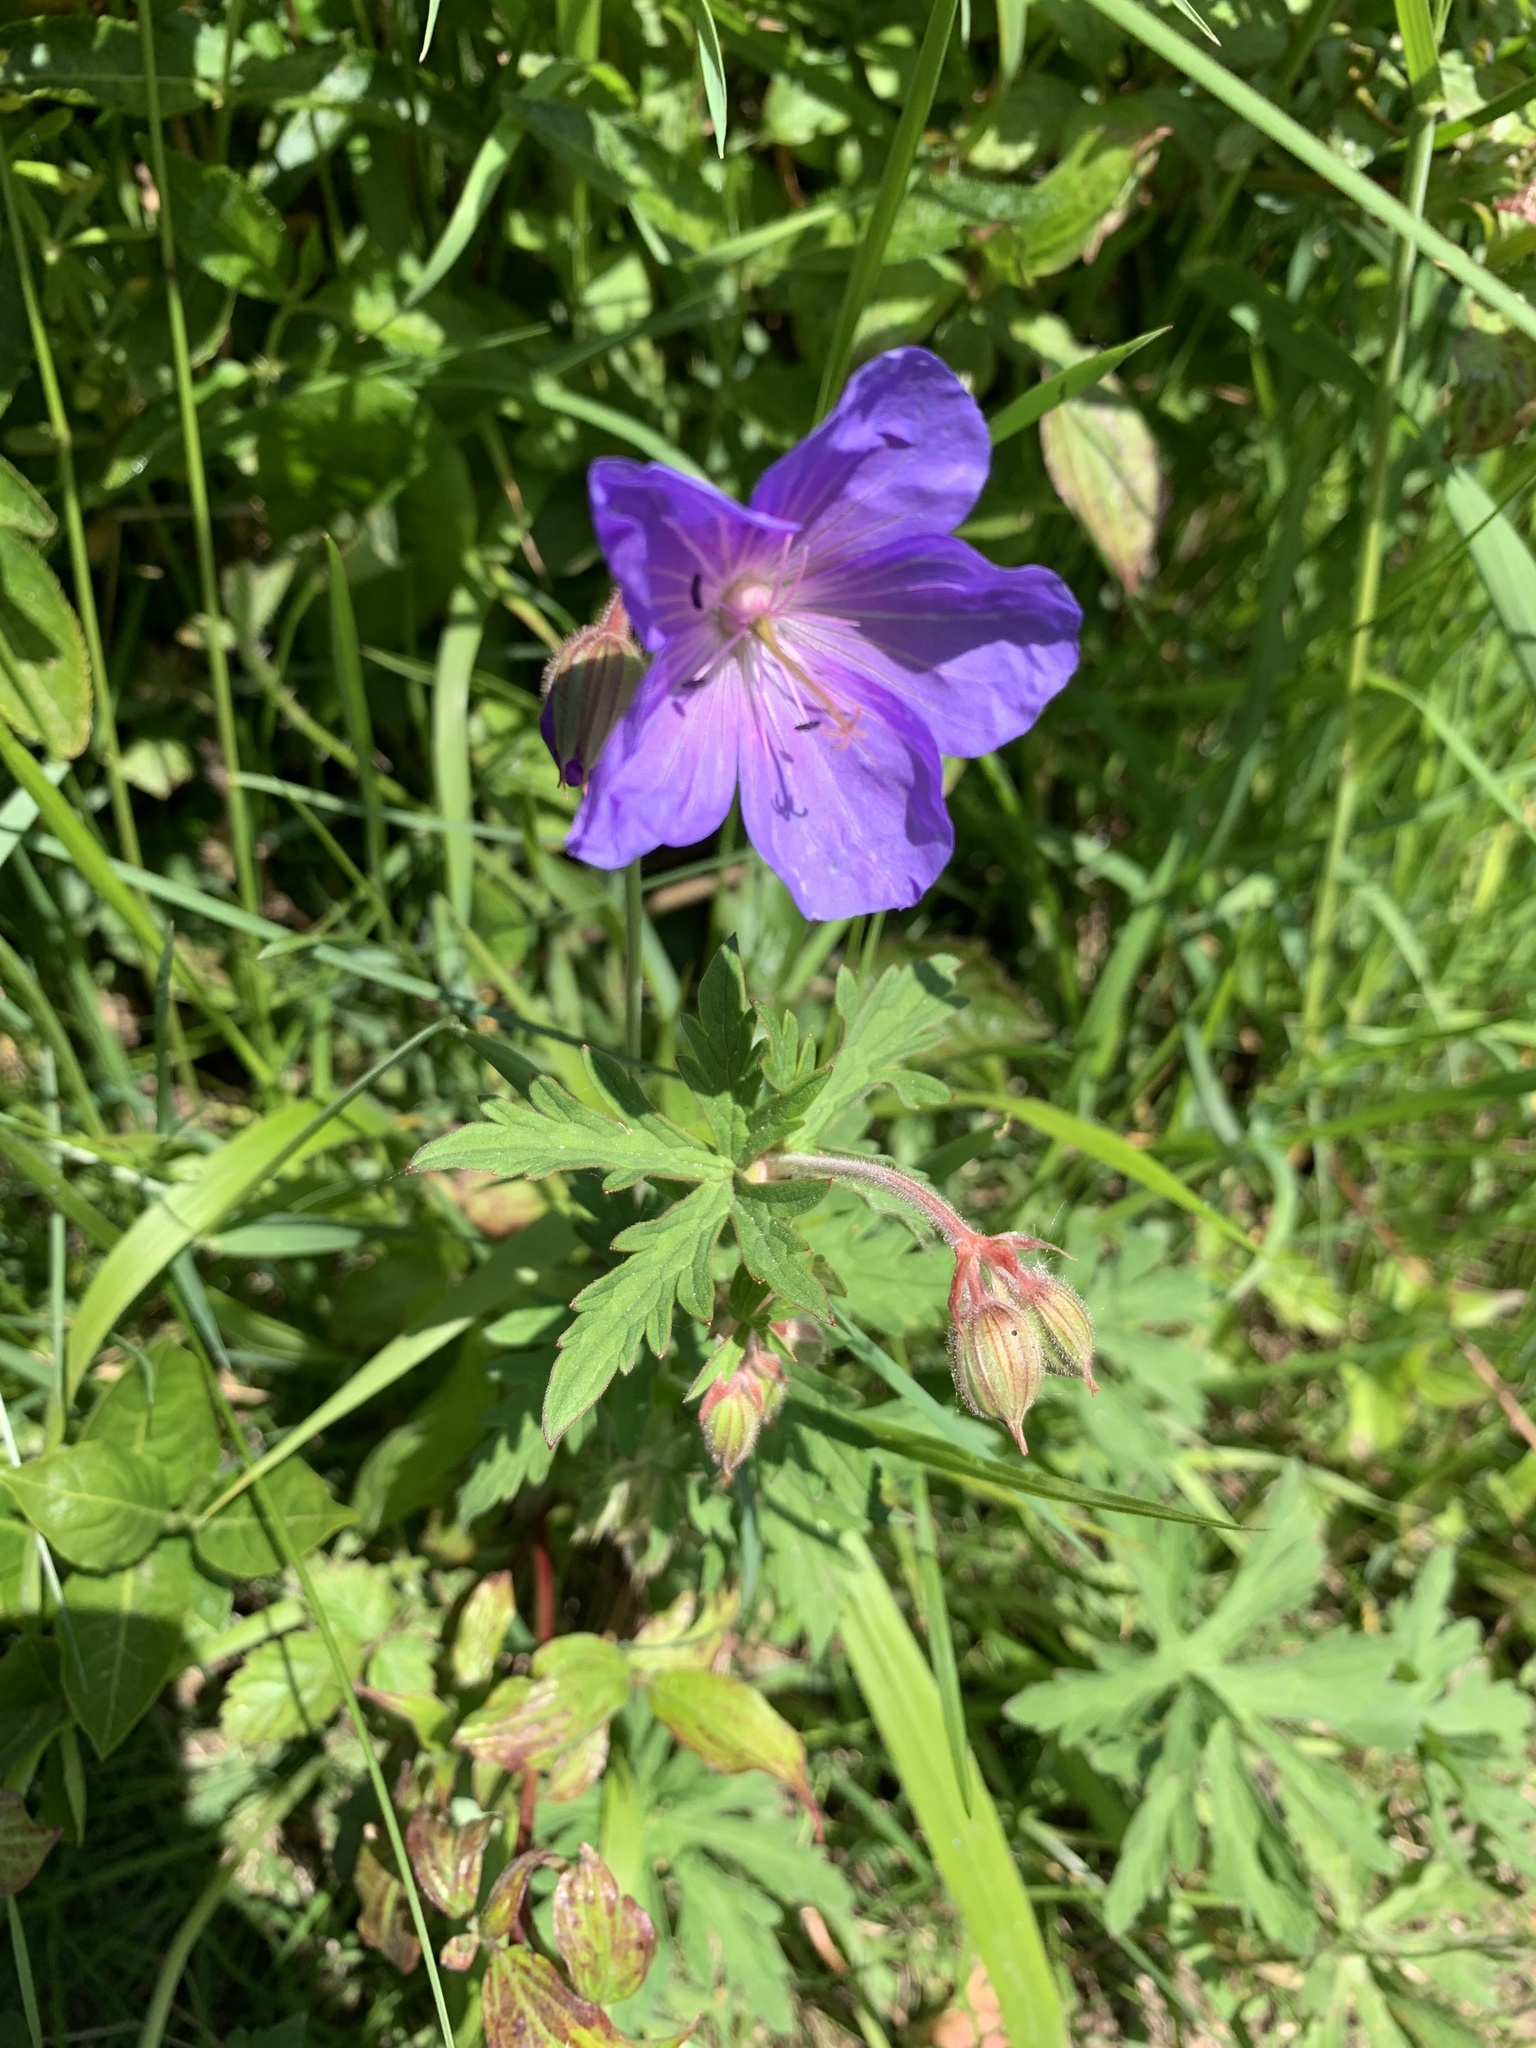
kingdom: Plantae
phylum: Tracheophyta
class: Magnoliopsida
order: Geraniales
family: Geraniaceae
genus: Geranium
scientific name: Geranium pratense
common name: Meadow crane's-bill
